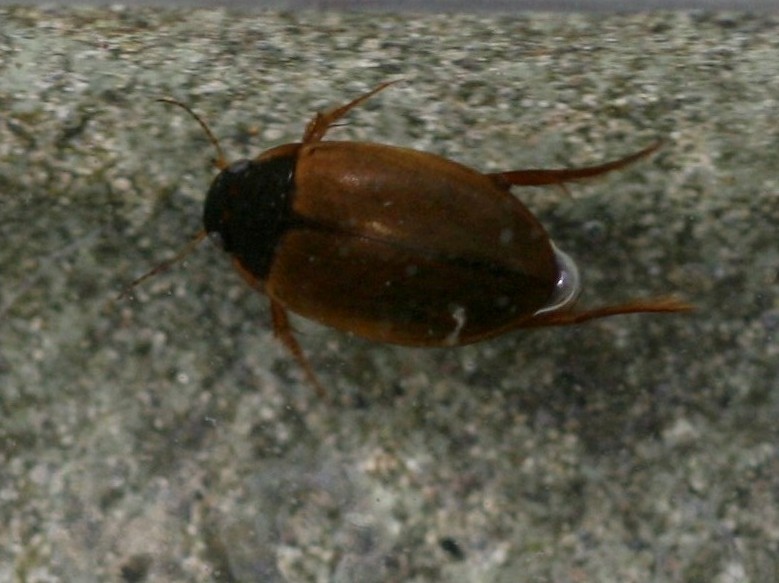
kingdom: Animalia
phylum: Arthropoda
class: Insecta
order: Coleoptera
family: Dytiscidae
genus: Agabus
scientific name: Agabus sturmii
